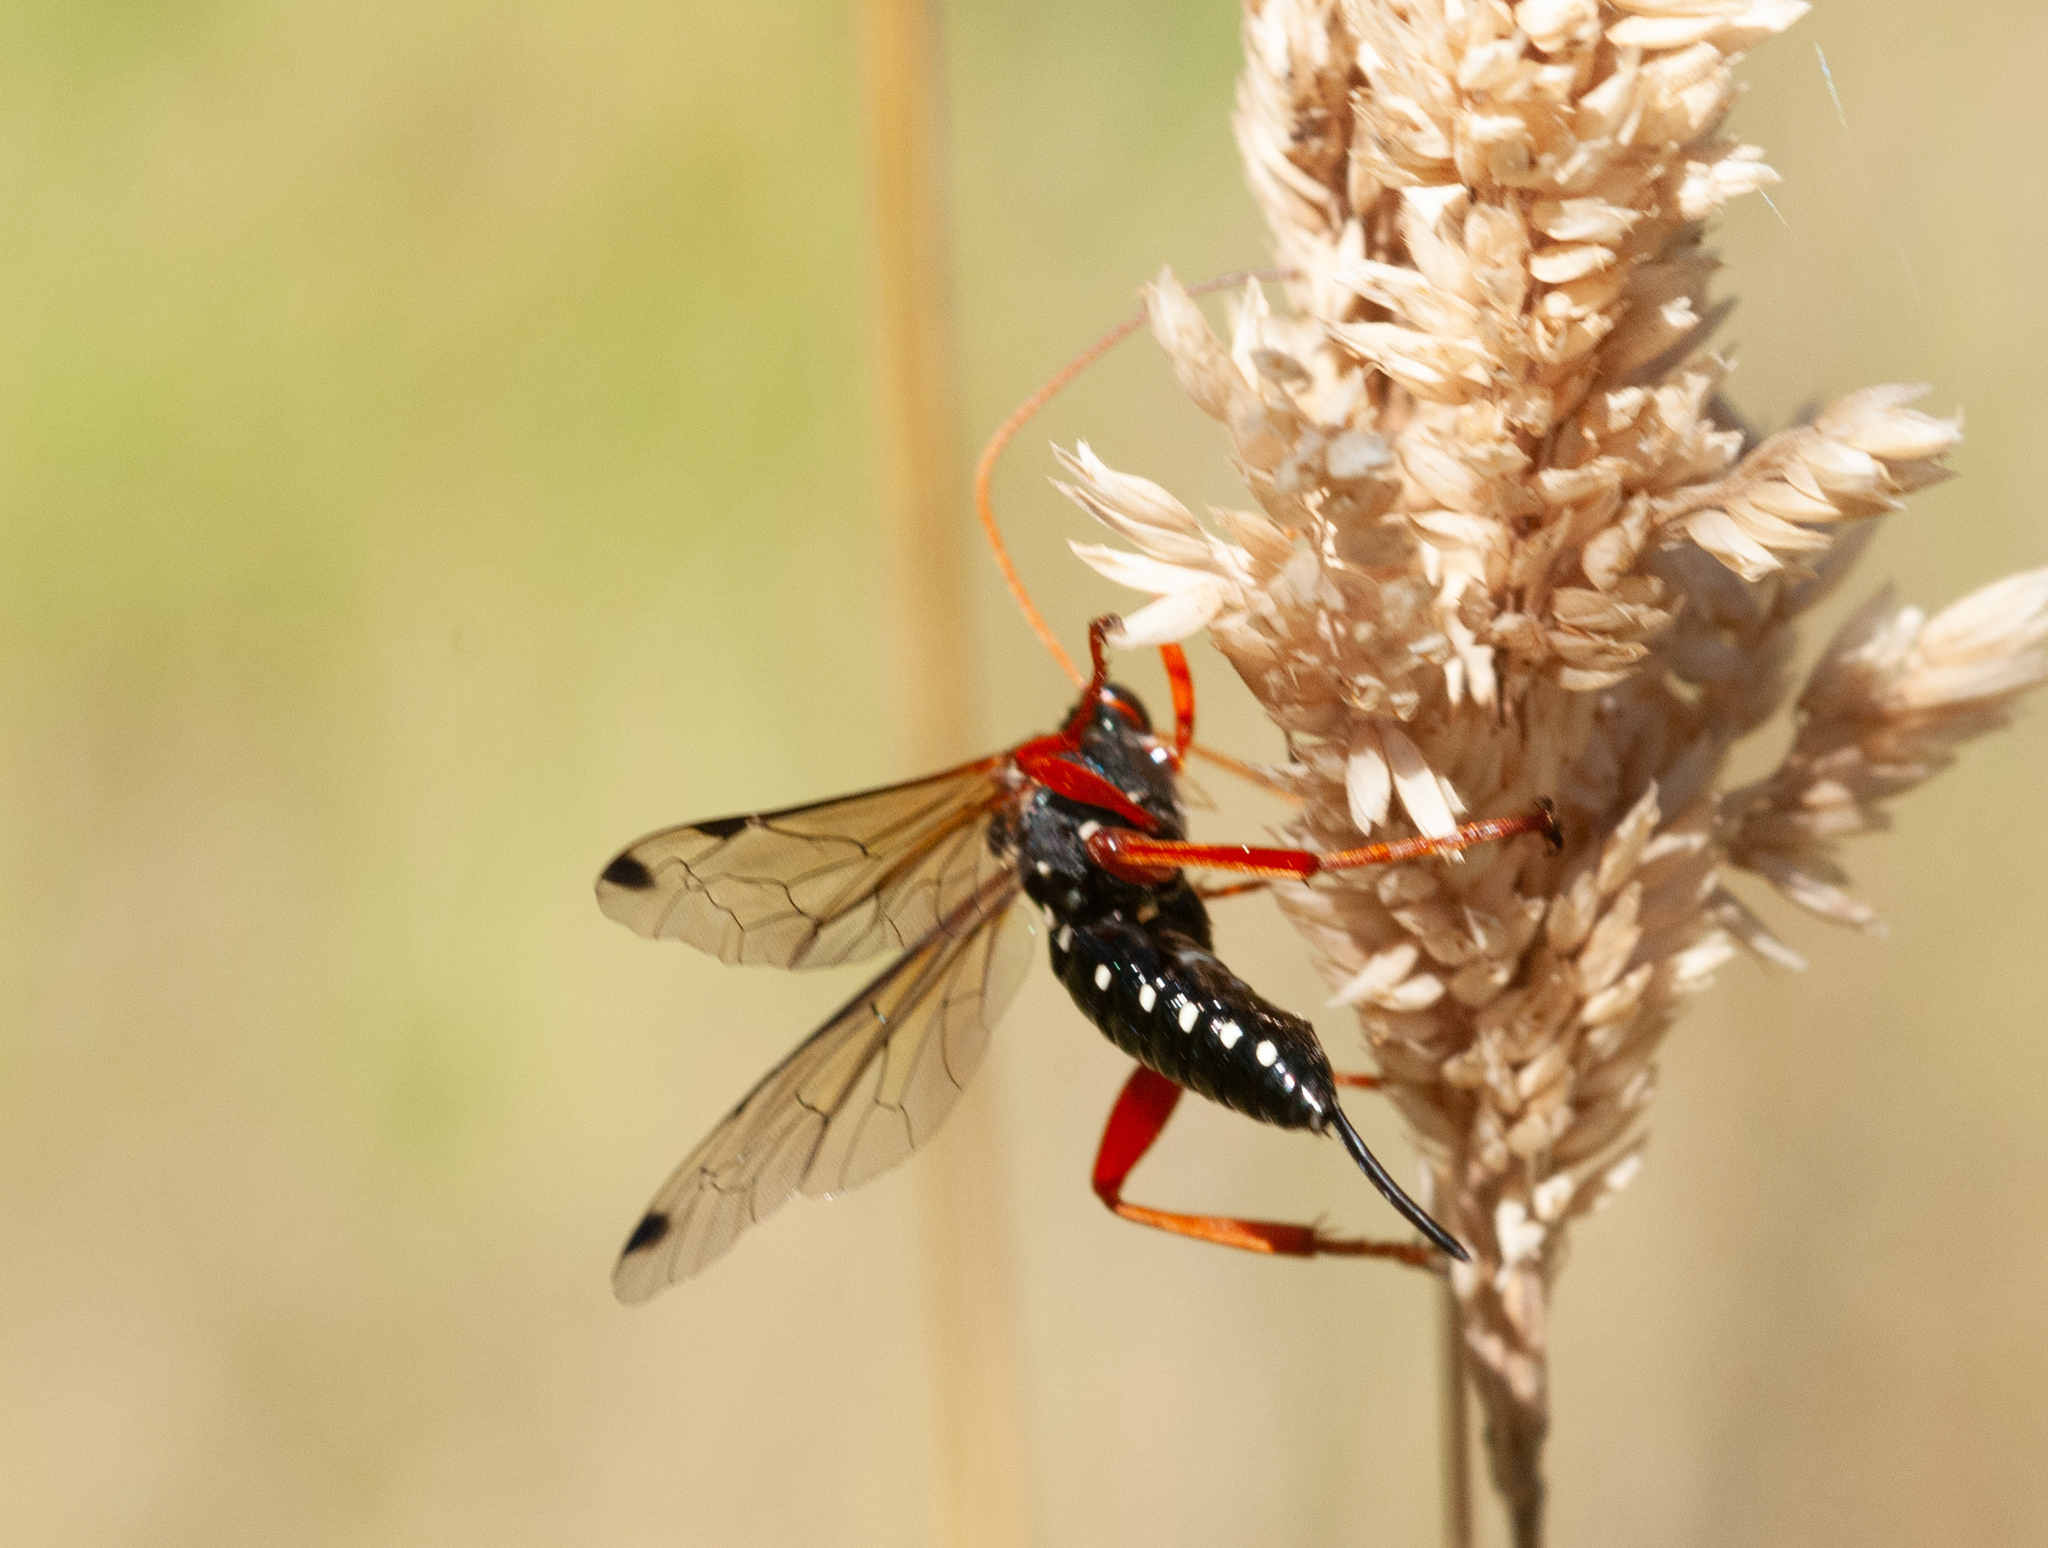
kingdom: Animalia
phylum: Arthropoda
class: Insecta
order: Hymenoptera
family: Ichneumonidae
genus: Echthromorpha
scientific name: Echthromorpha intricatoria
